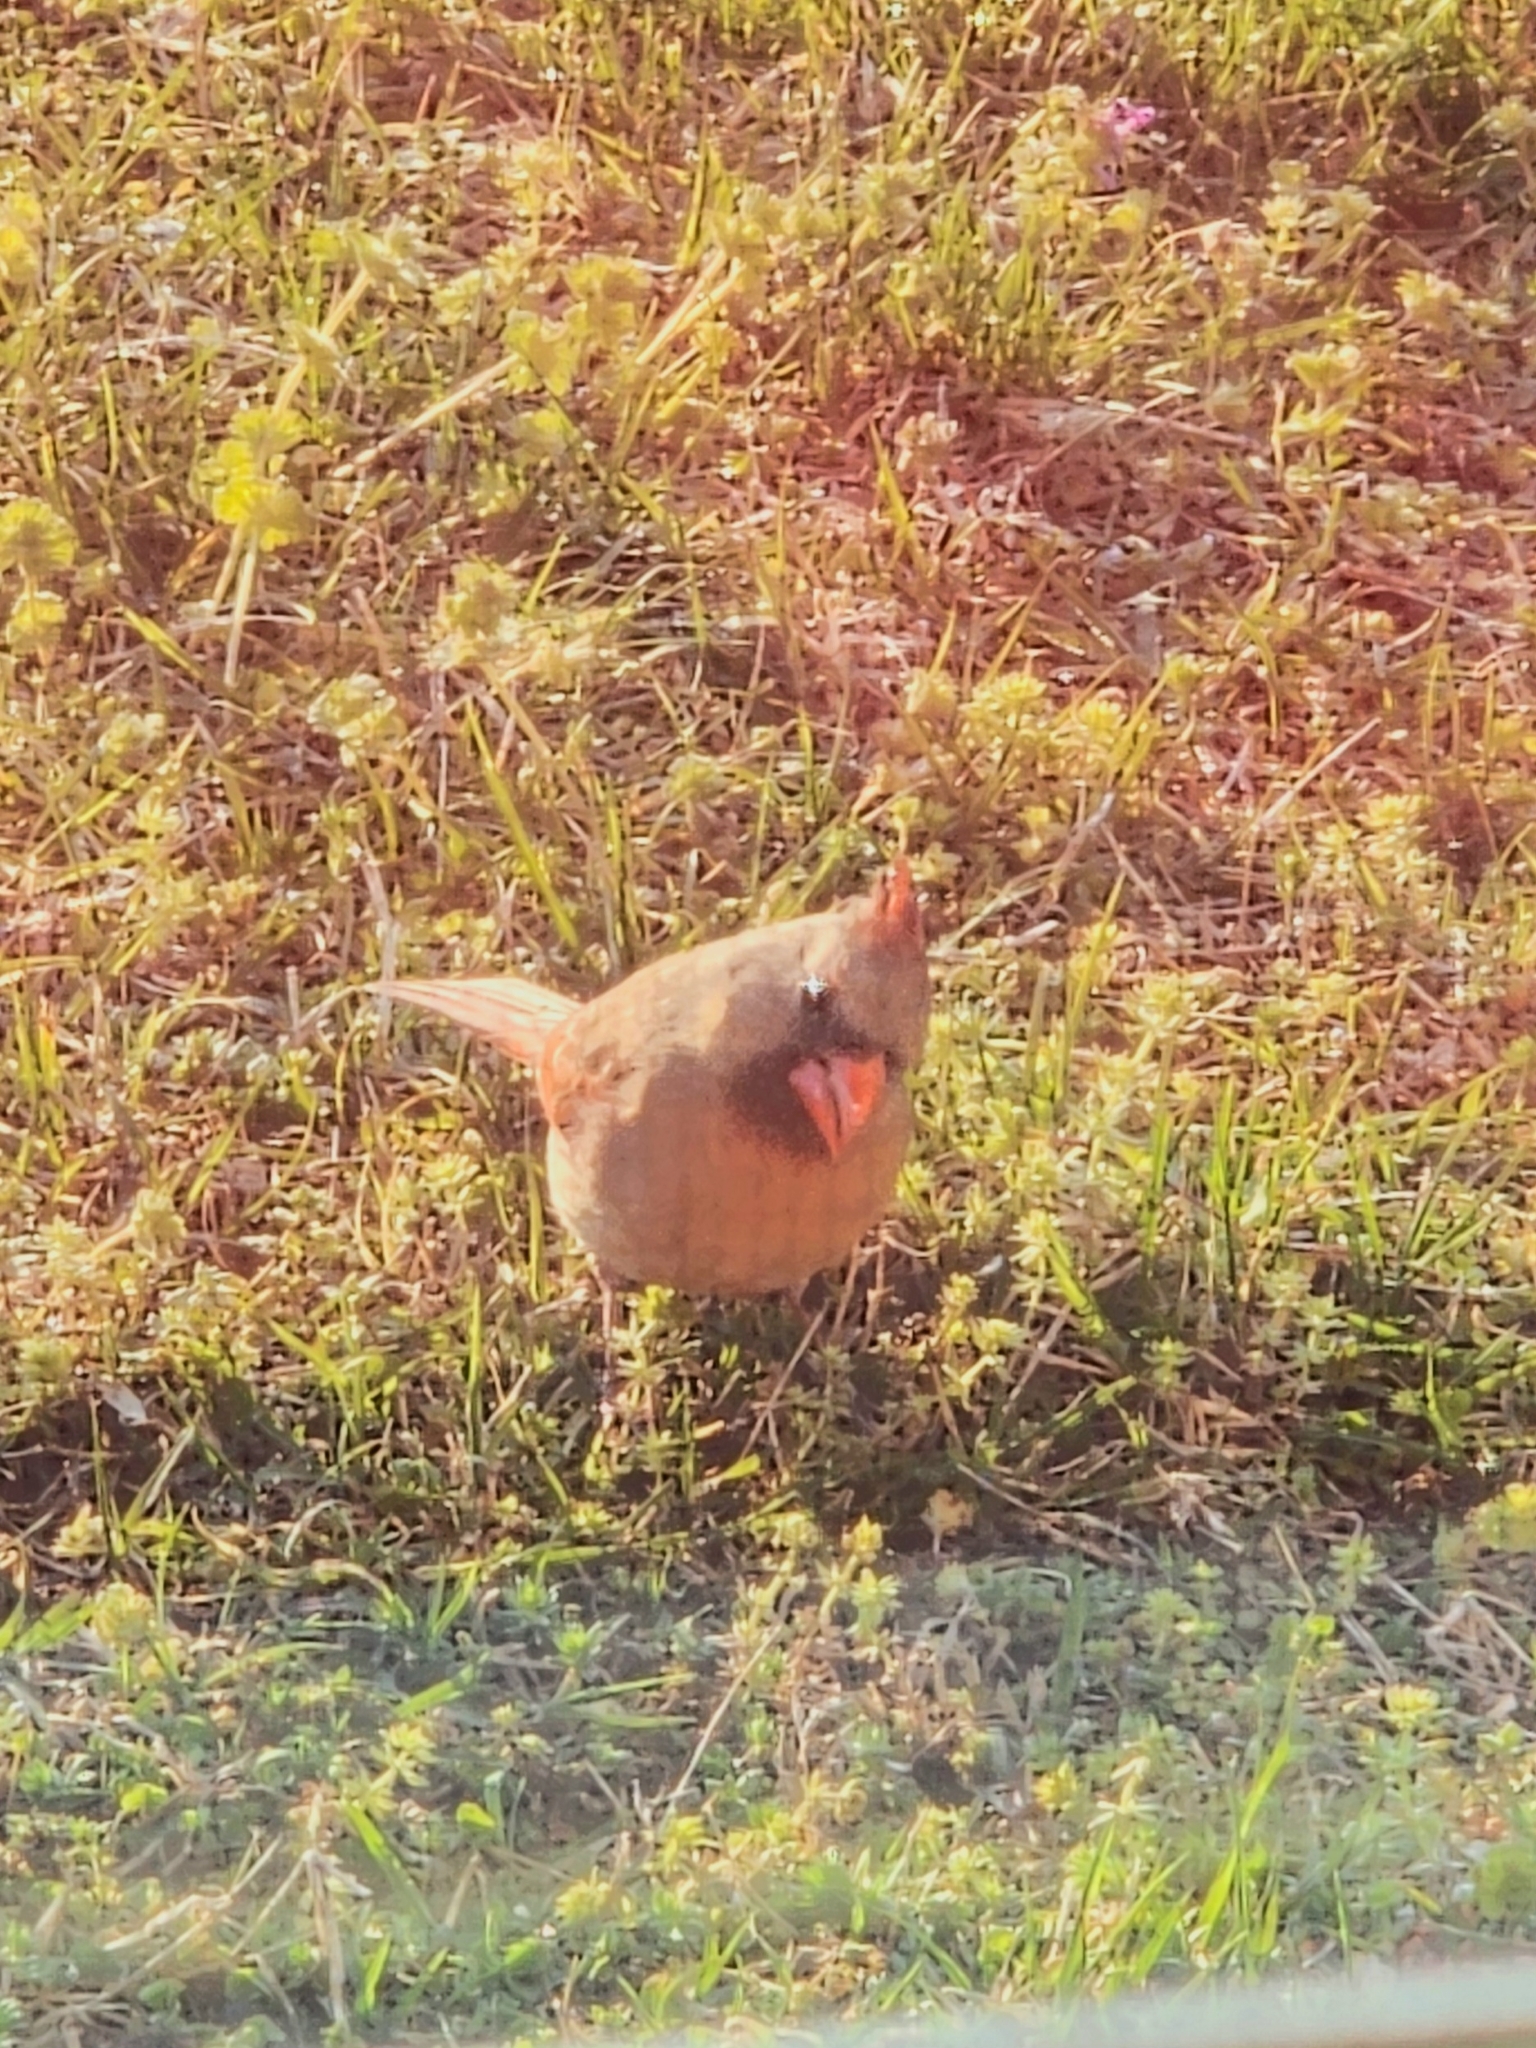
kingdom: Animalia
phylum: Chordata
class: Aves
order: Passeriformes
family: Cardinalidae
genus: Cardinalis
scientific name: Cardinalis cardinalis
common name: Northern cardinal
